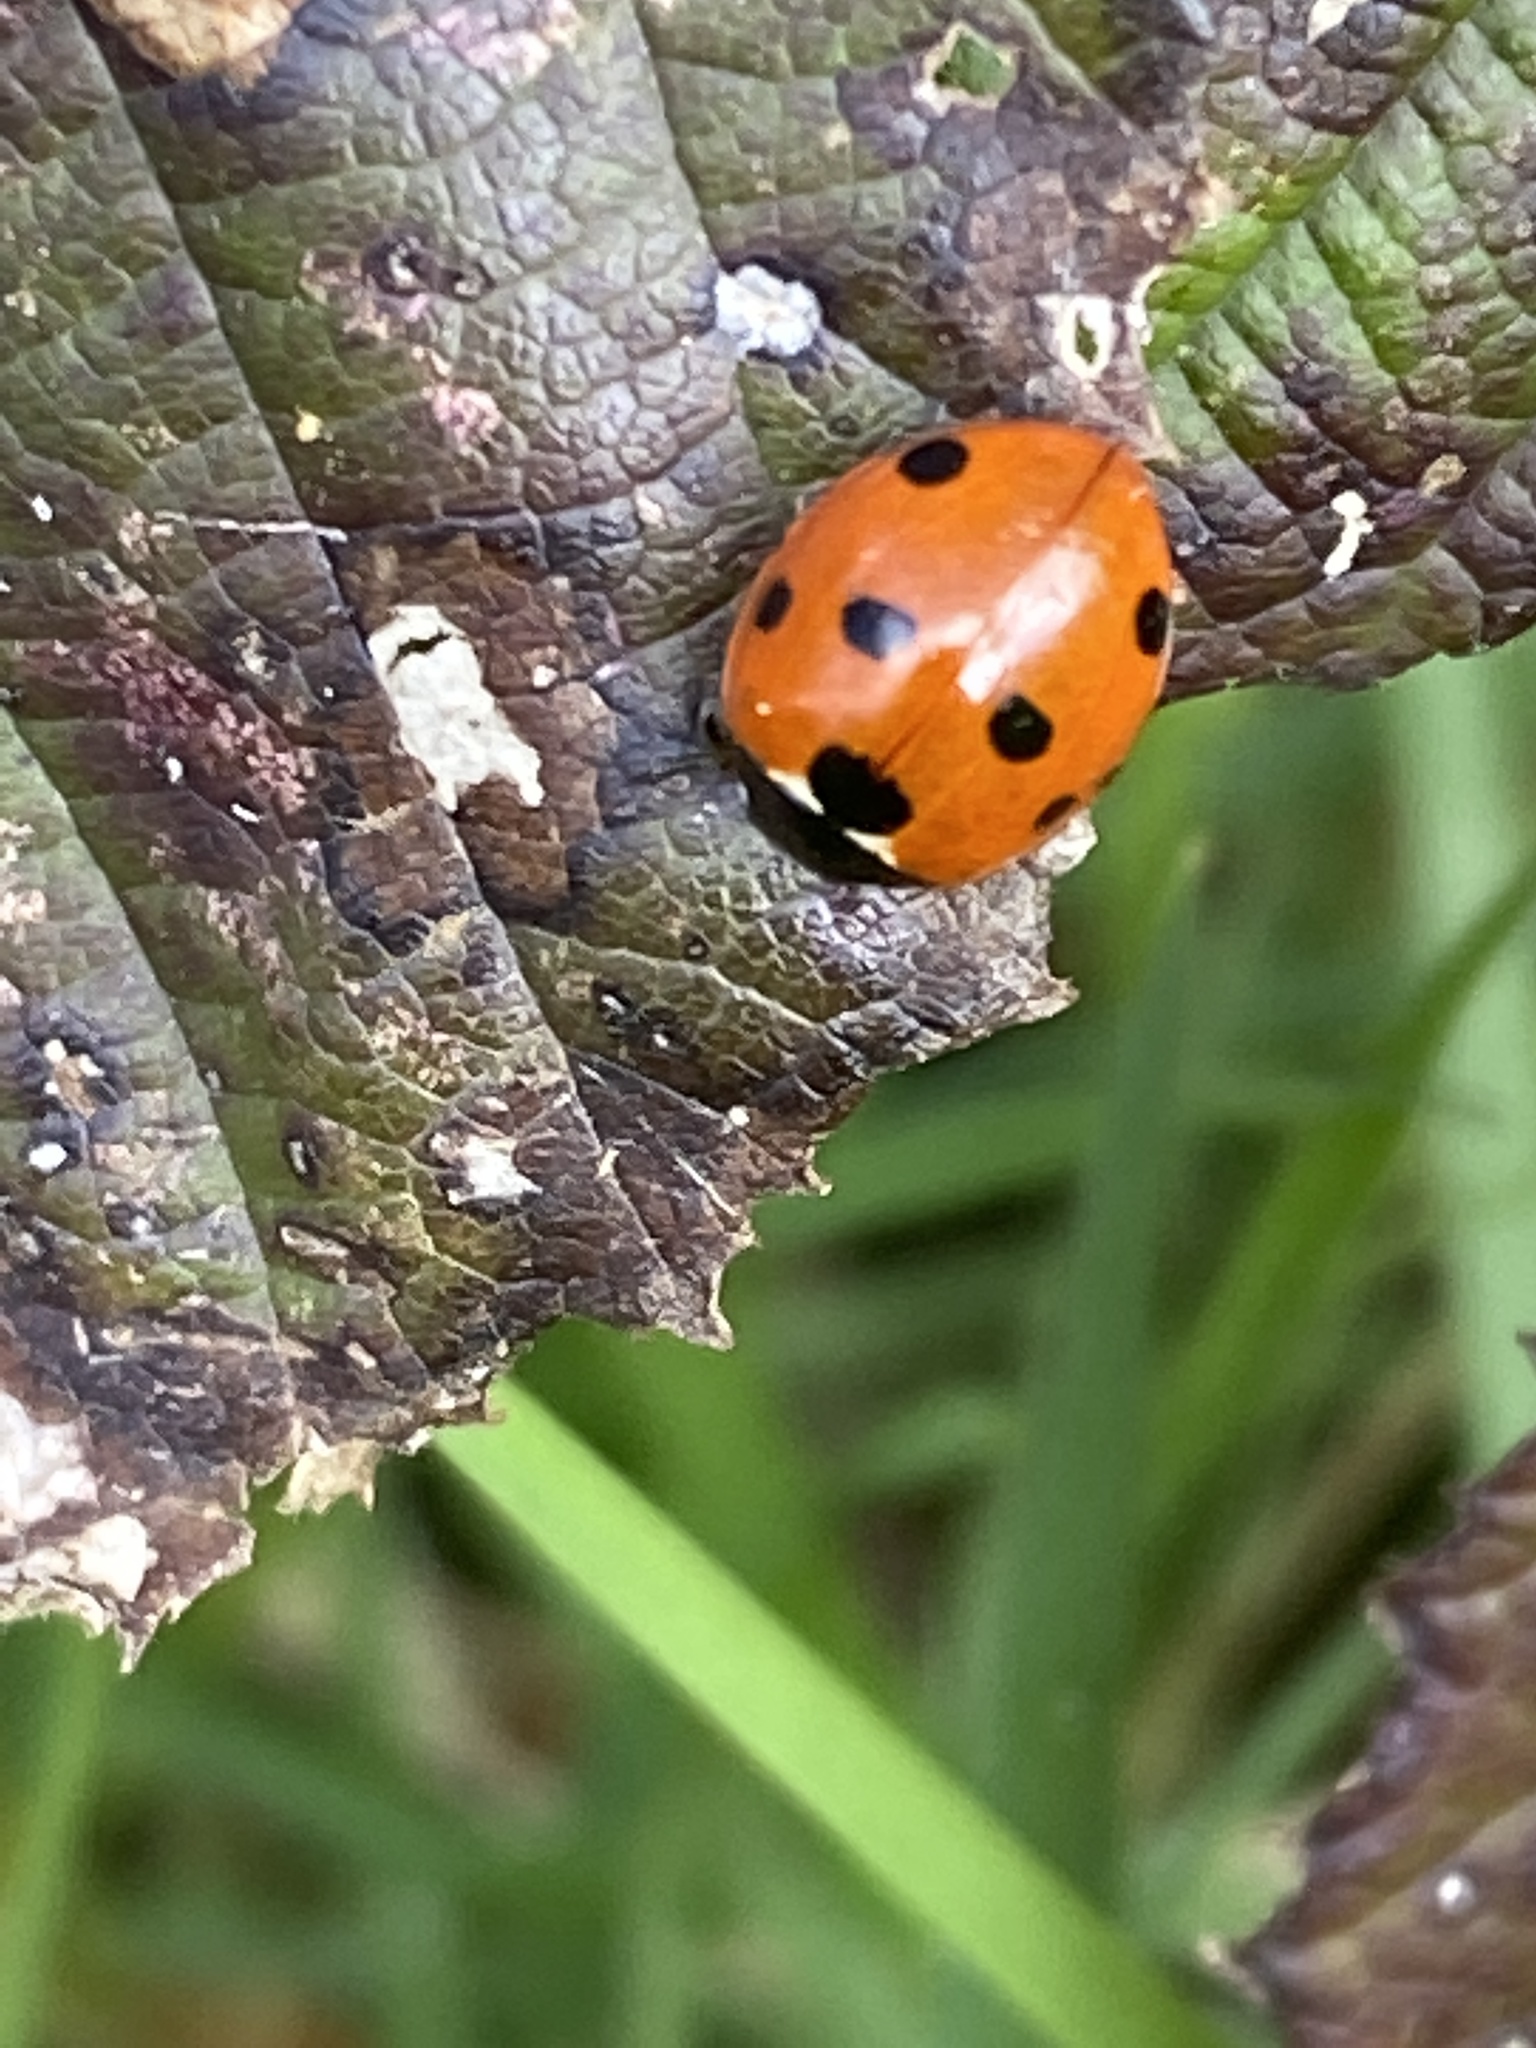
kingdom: Animalia
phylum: Arthropoda
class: Insecta
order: Coleoptera
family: Coccinellidae
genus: Coccinella
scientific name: Coccinella septempunctata
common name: Sevenspotted lady beetle
